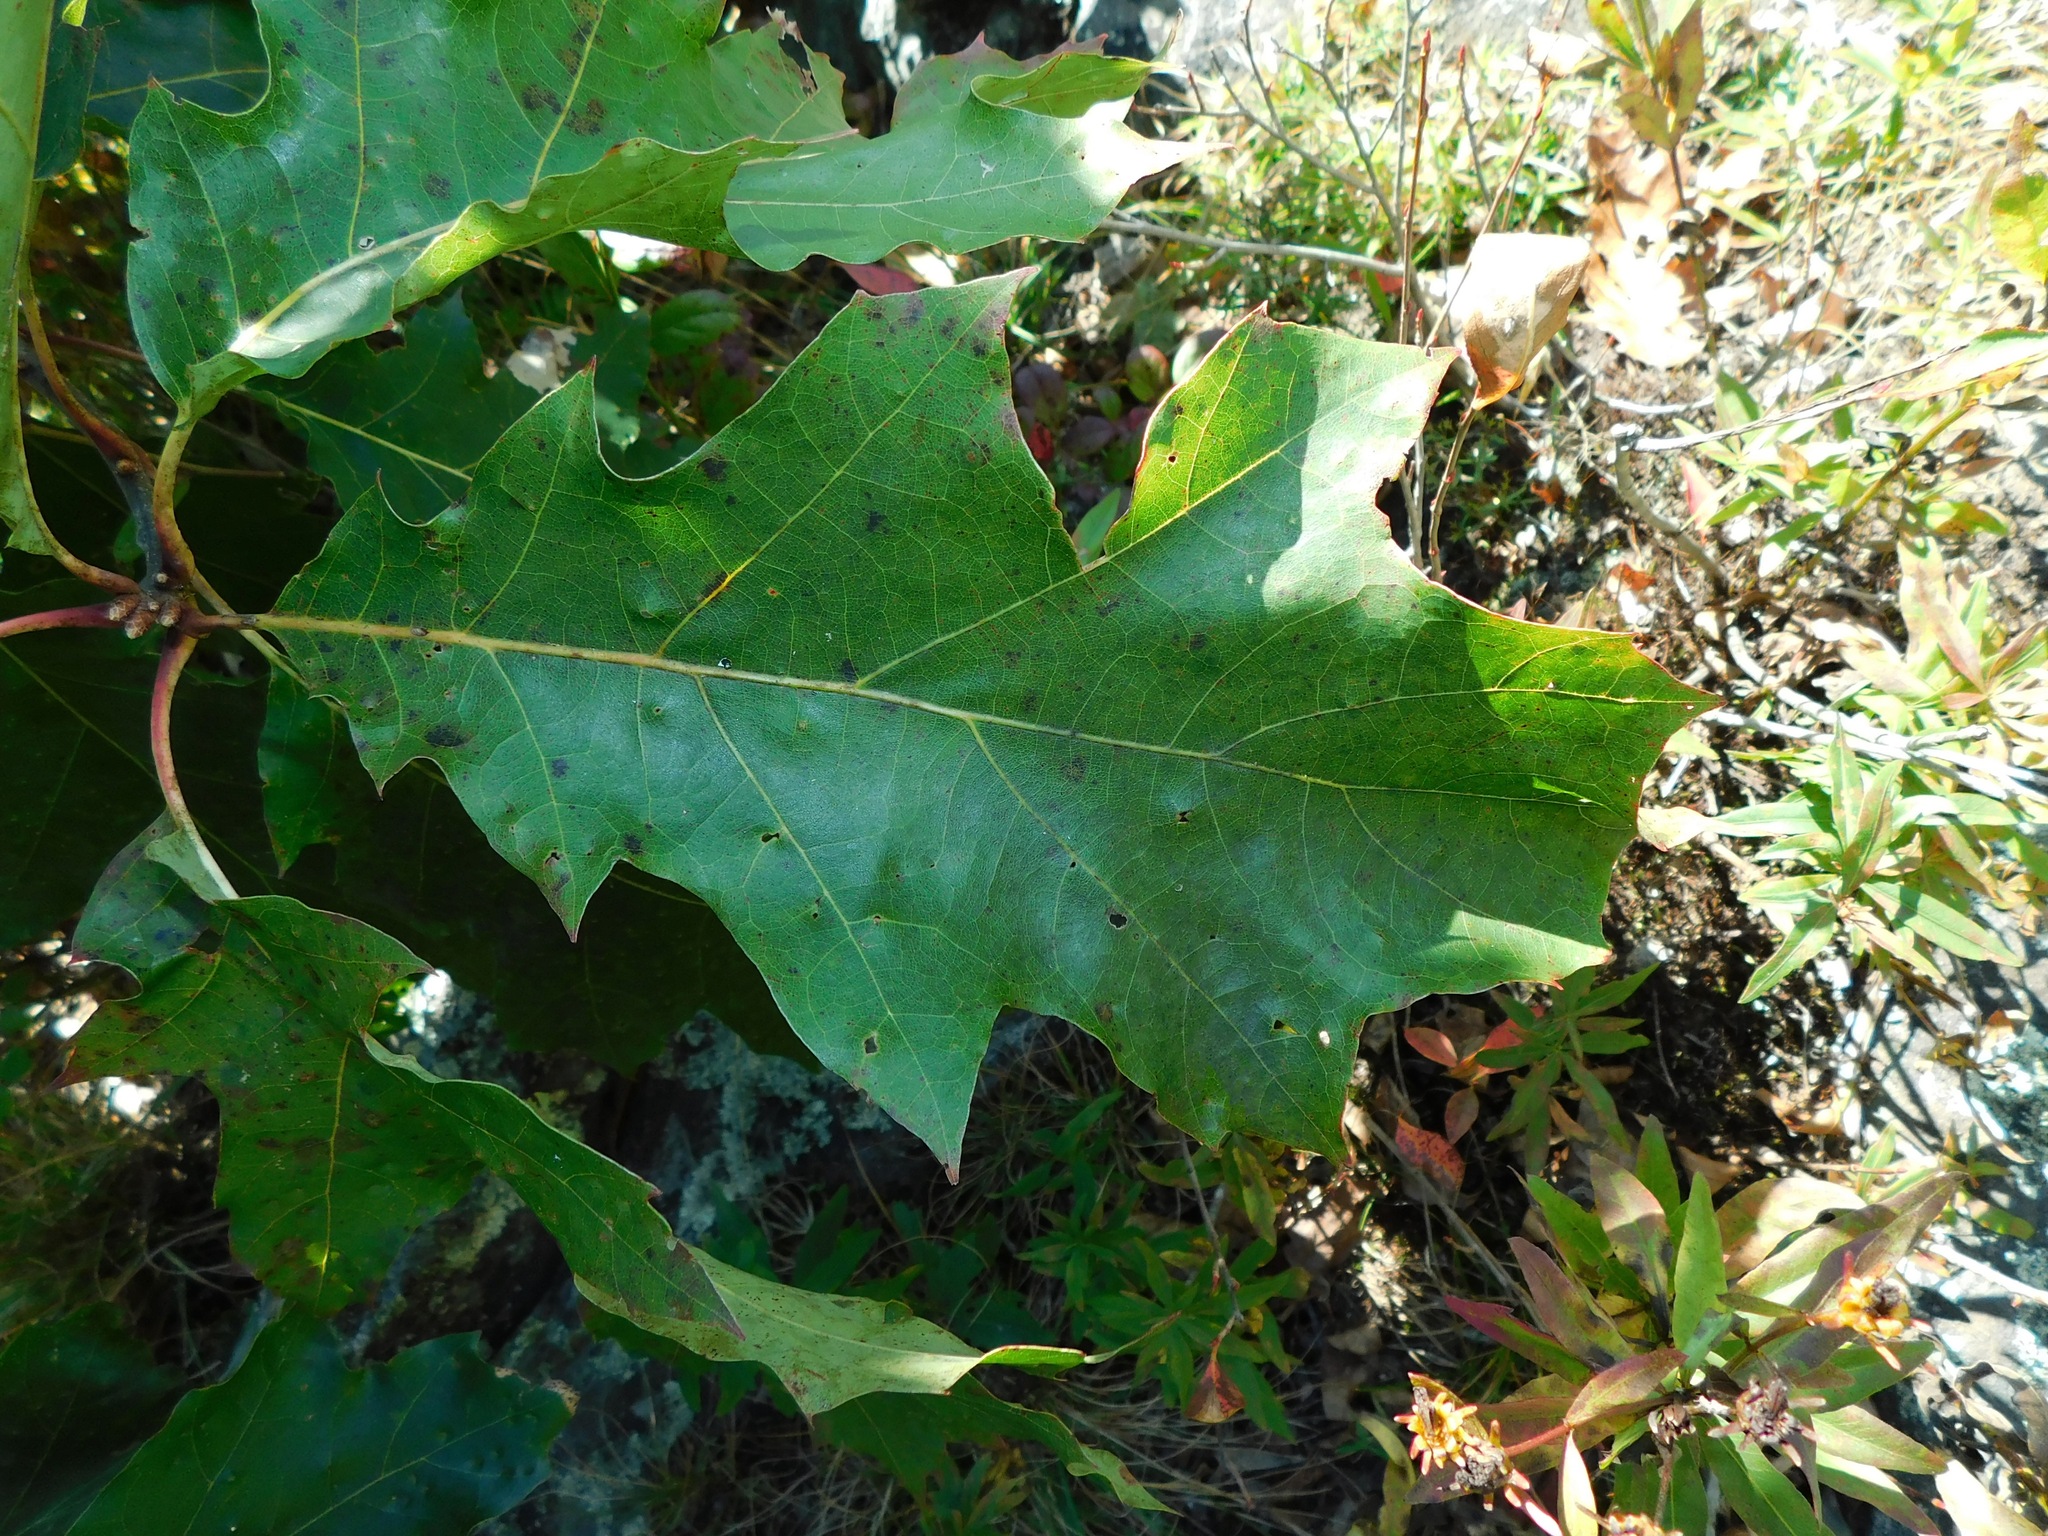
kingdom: Plantae
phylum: Tracheophyta
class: Magnoliopsida
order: Fagales
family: Fagaceae
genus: Quercus
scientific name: Quercus velutina
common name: Black oak
